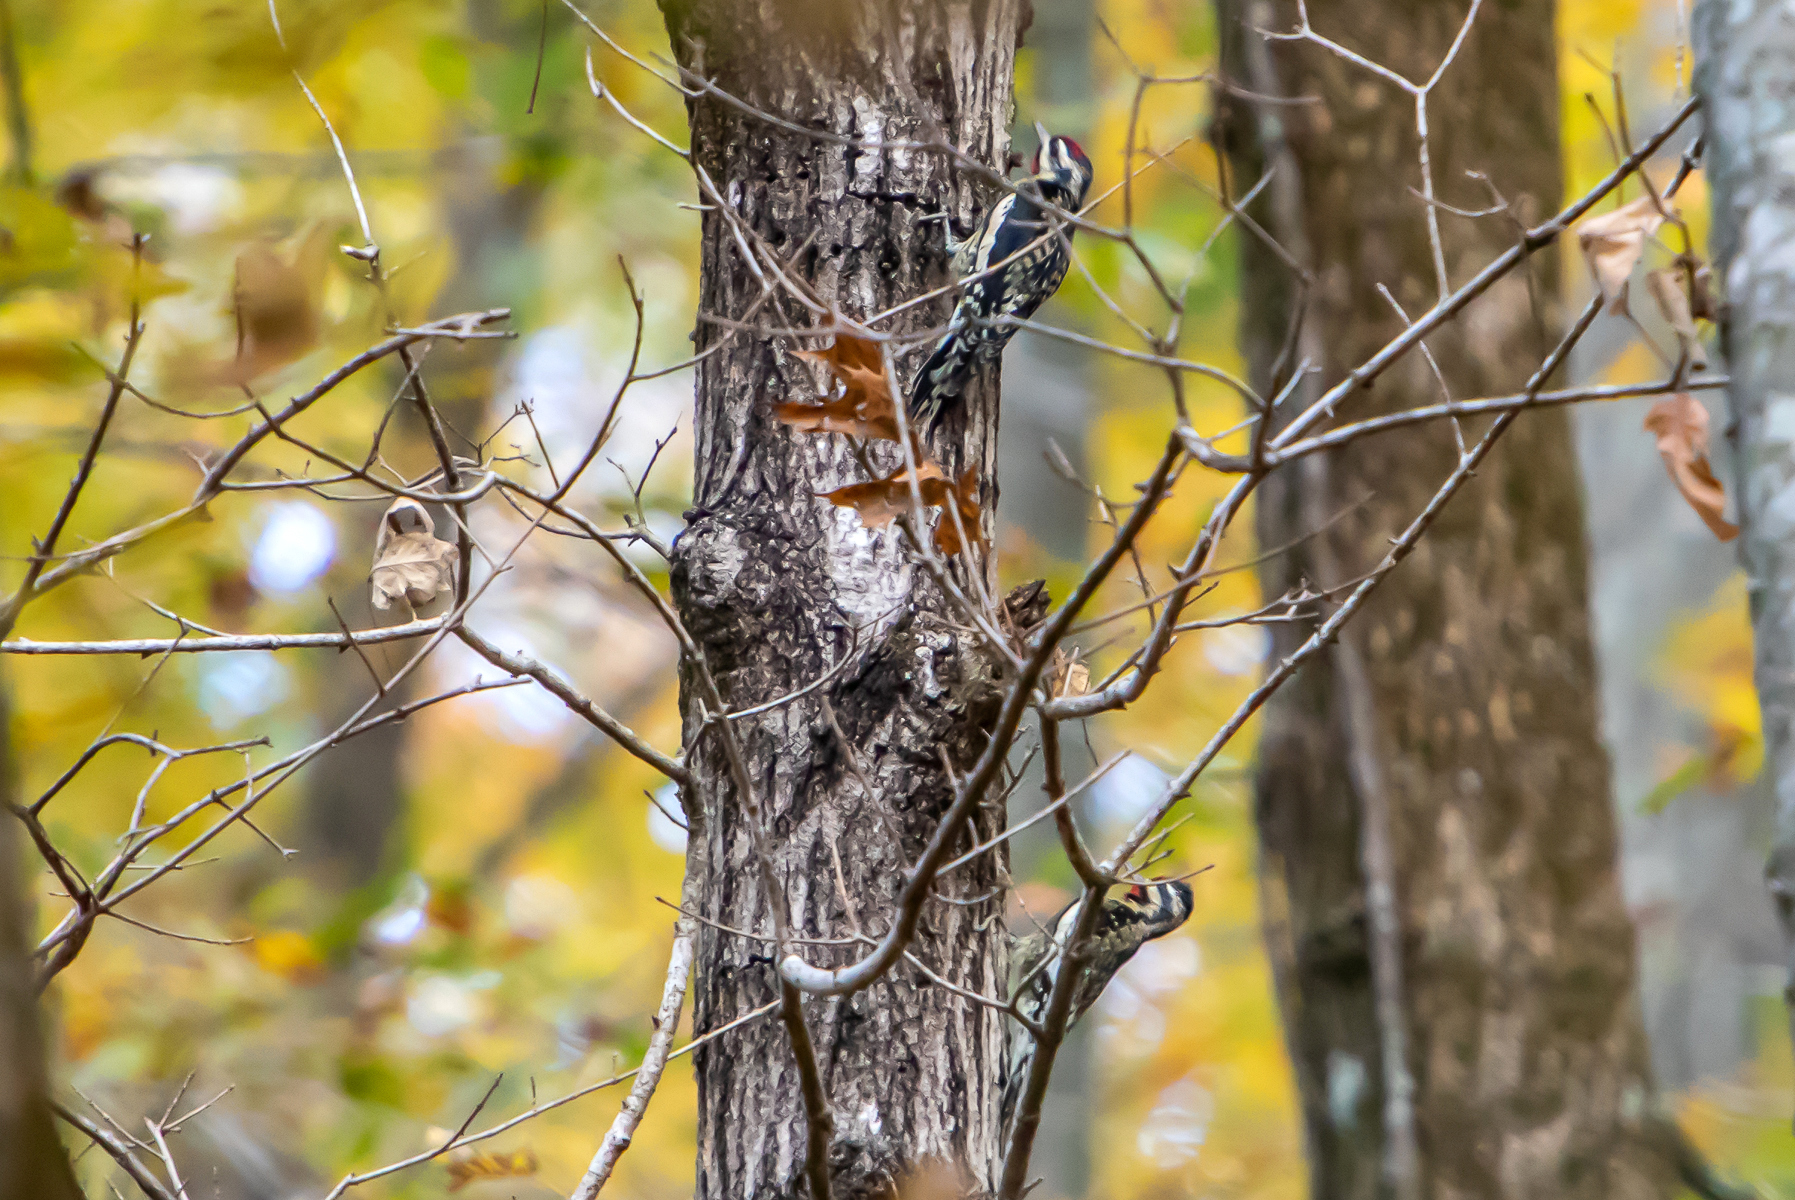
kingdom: Animalia
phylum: Chordata
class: Aves
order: Piciformes
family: Picidae
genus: Sphyrapicus
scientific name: Sphyrapicus varius
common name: Yellow-bellied sapsucker
